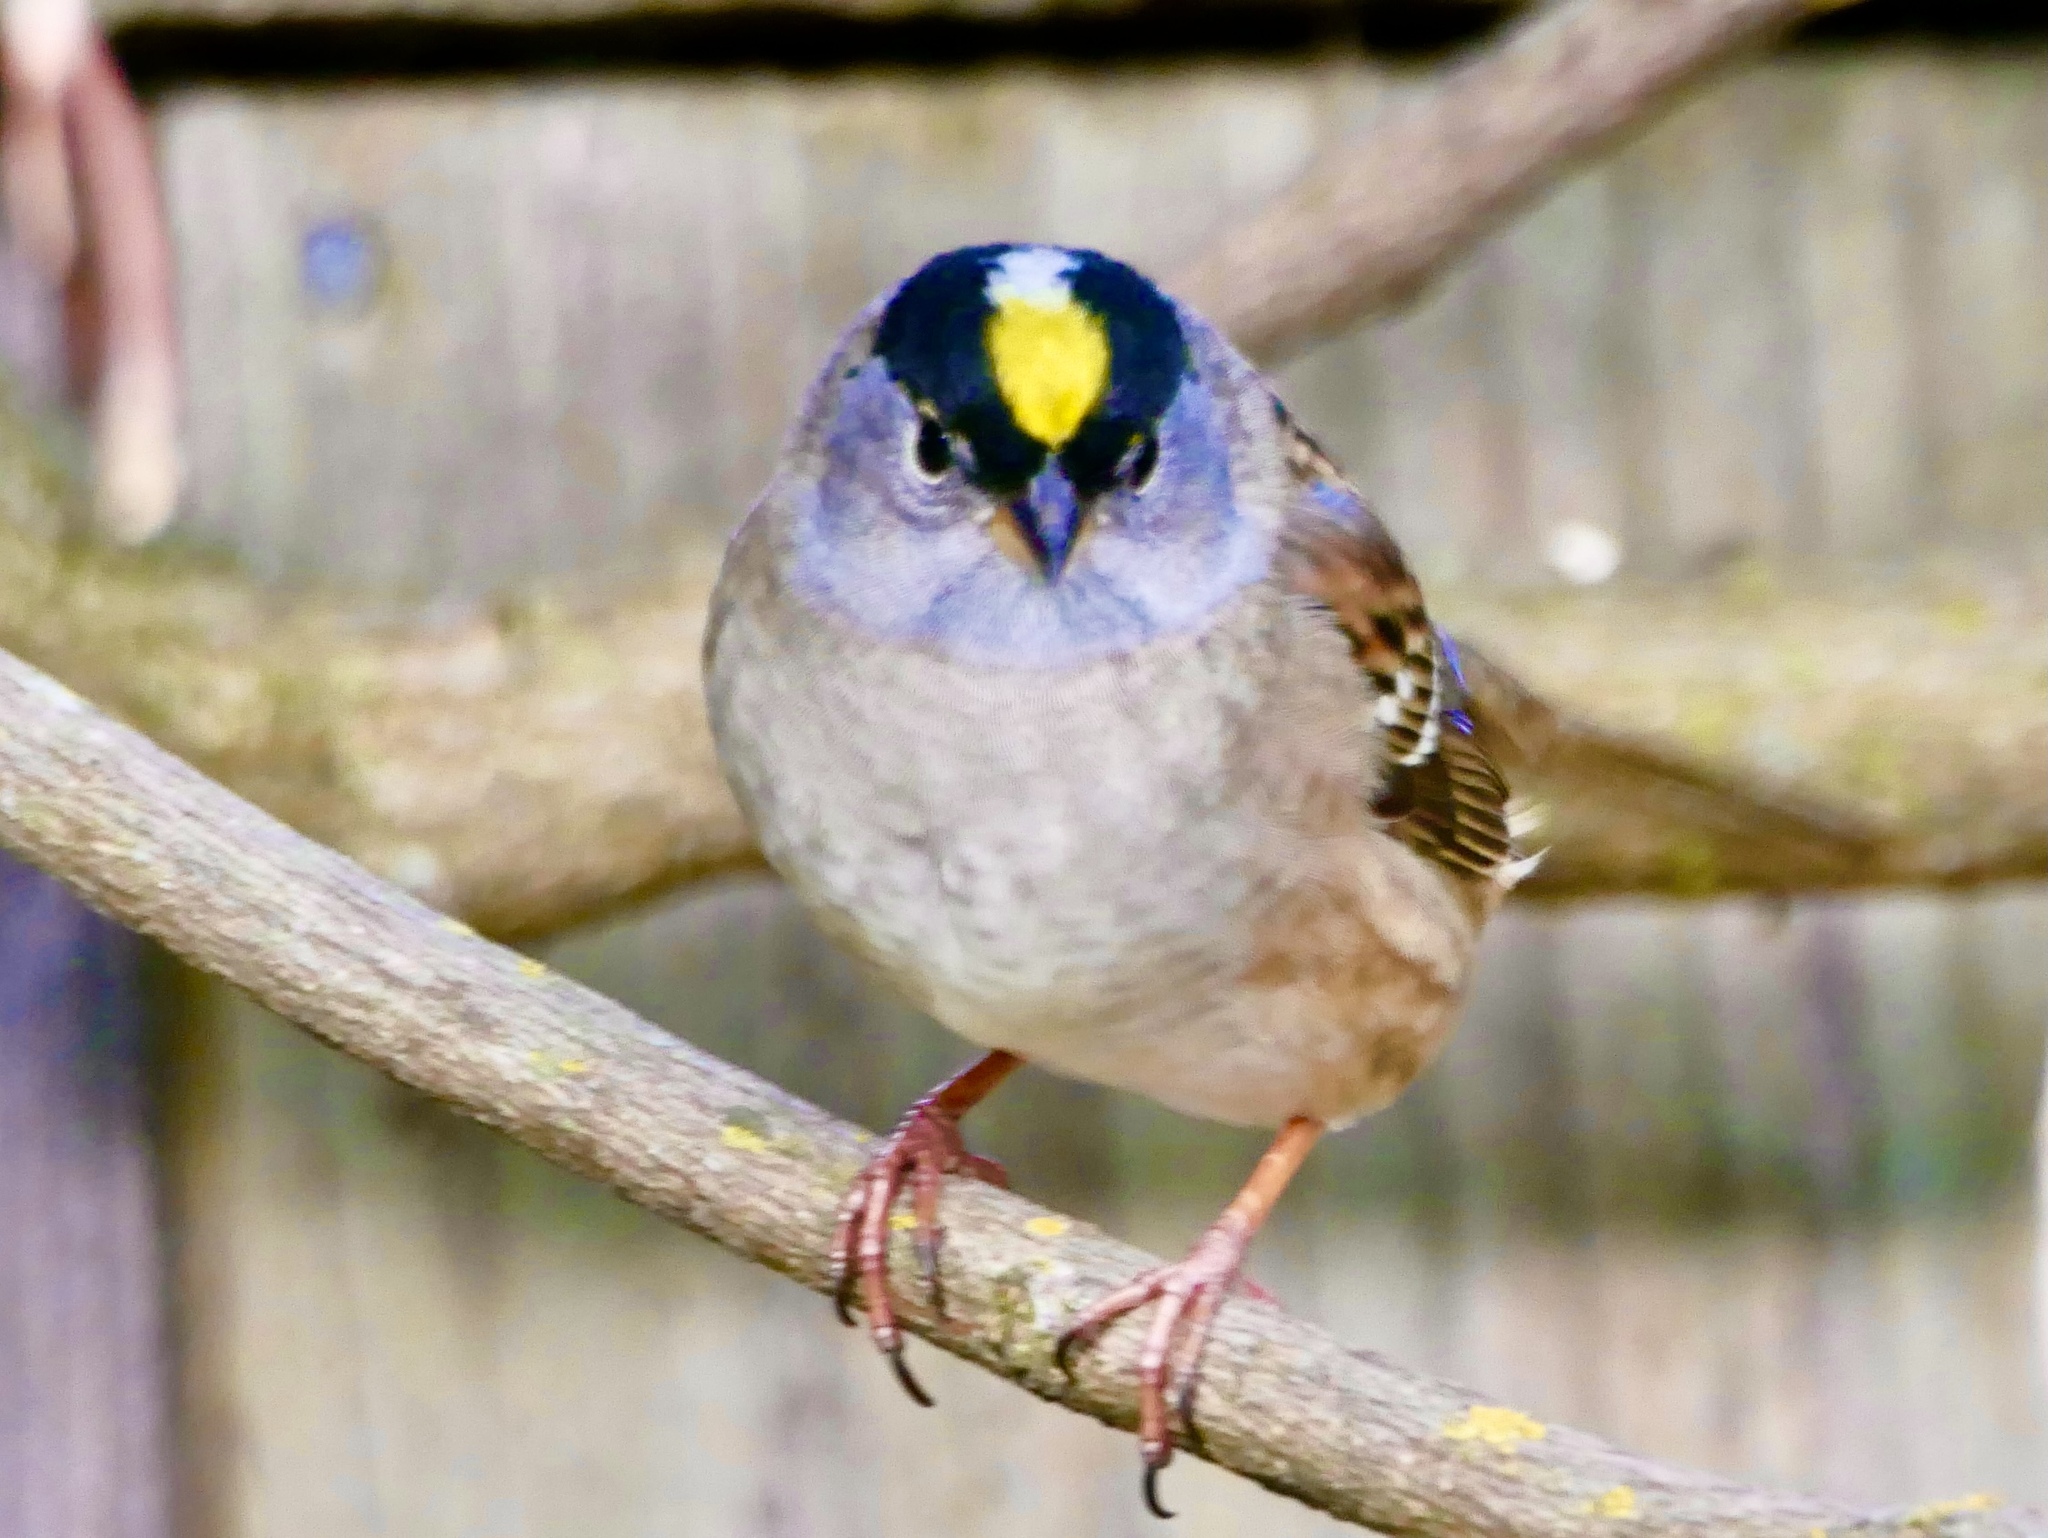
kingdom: Animalia
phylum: Chordata
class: Aves
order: Passeriformes
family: Passerellidae
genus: Zonotrichia
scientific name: Zonotrichia atricapilla
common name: Golden-crowned sparrow
